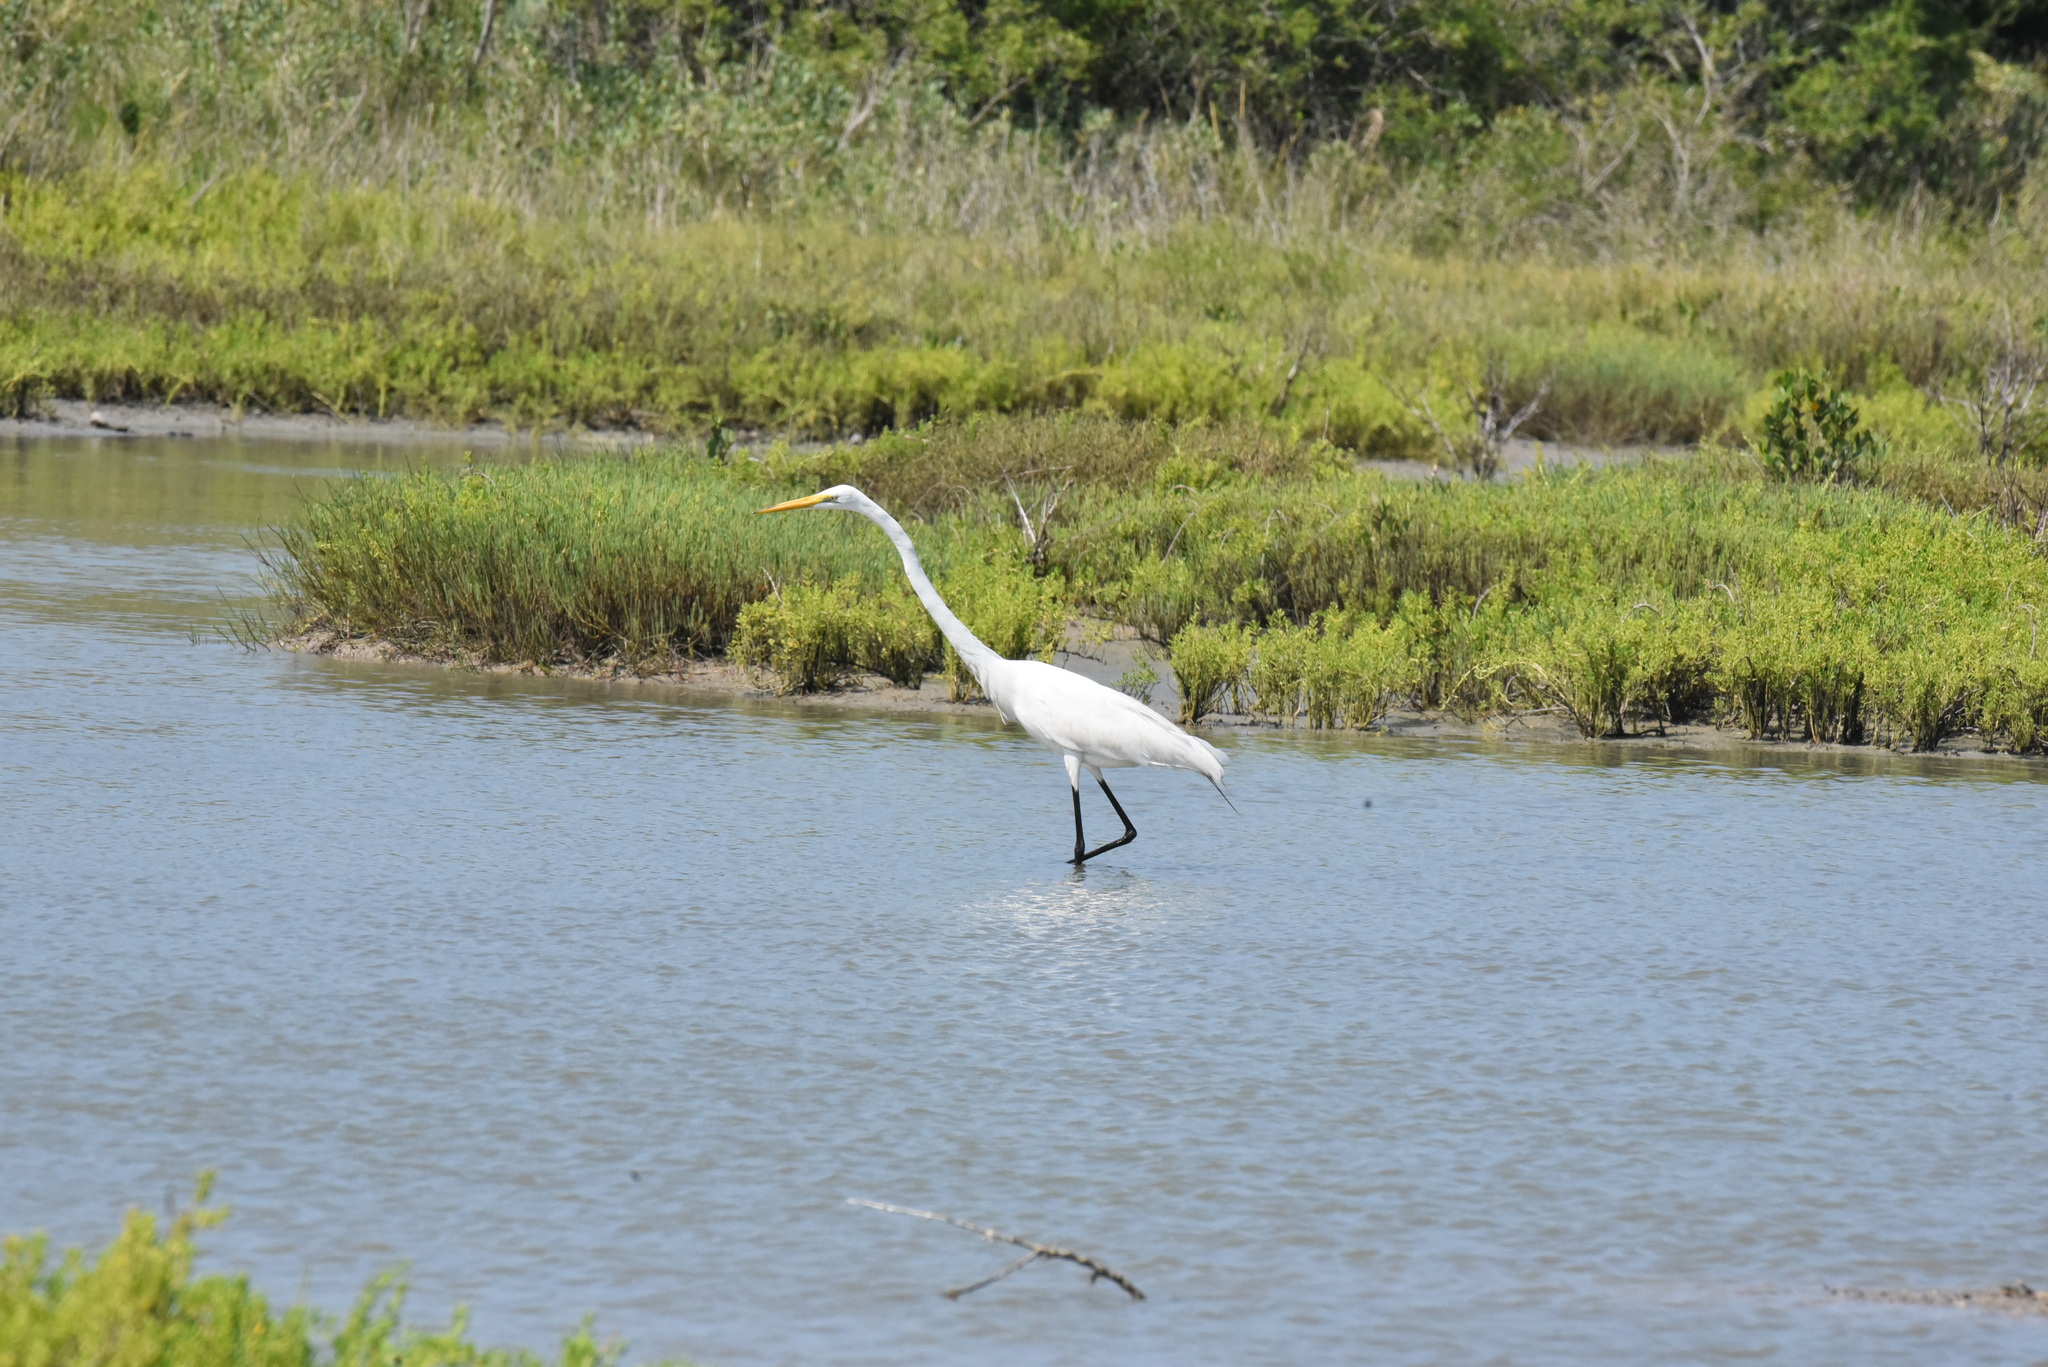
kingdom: Animalia
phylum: Chordata
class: Aves
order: Pelecaniformes
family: Ardeidae
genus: Ardea
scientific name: Ardea alba
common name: Great egret
